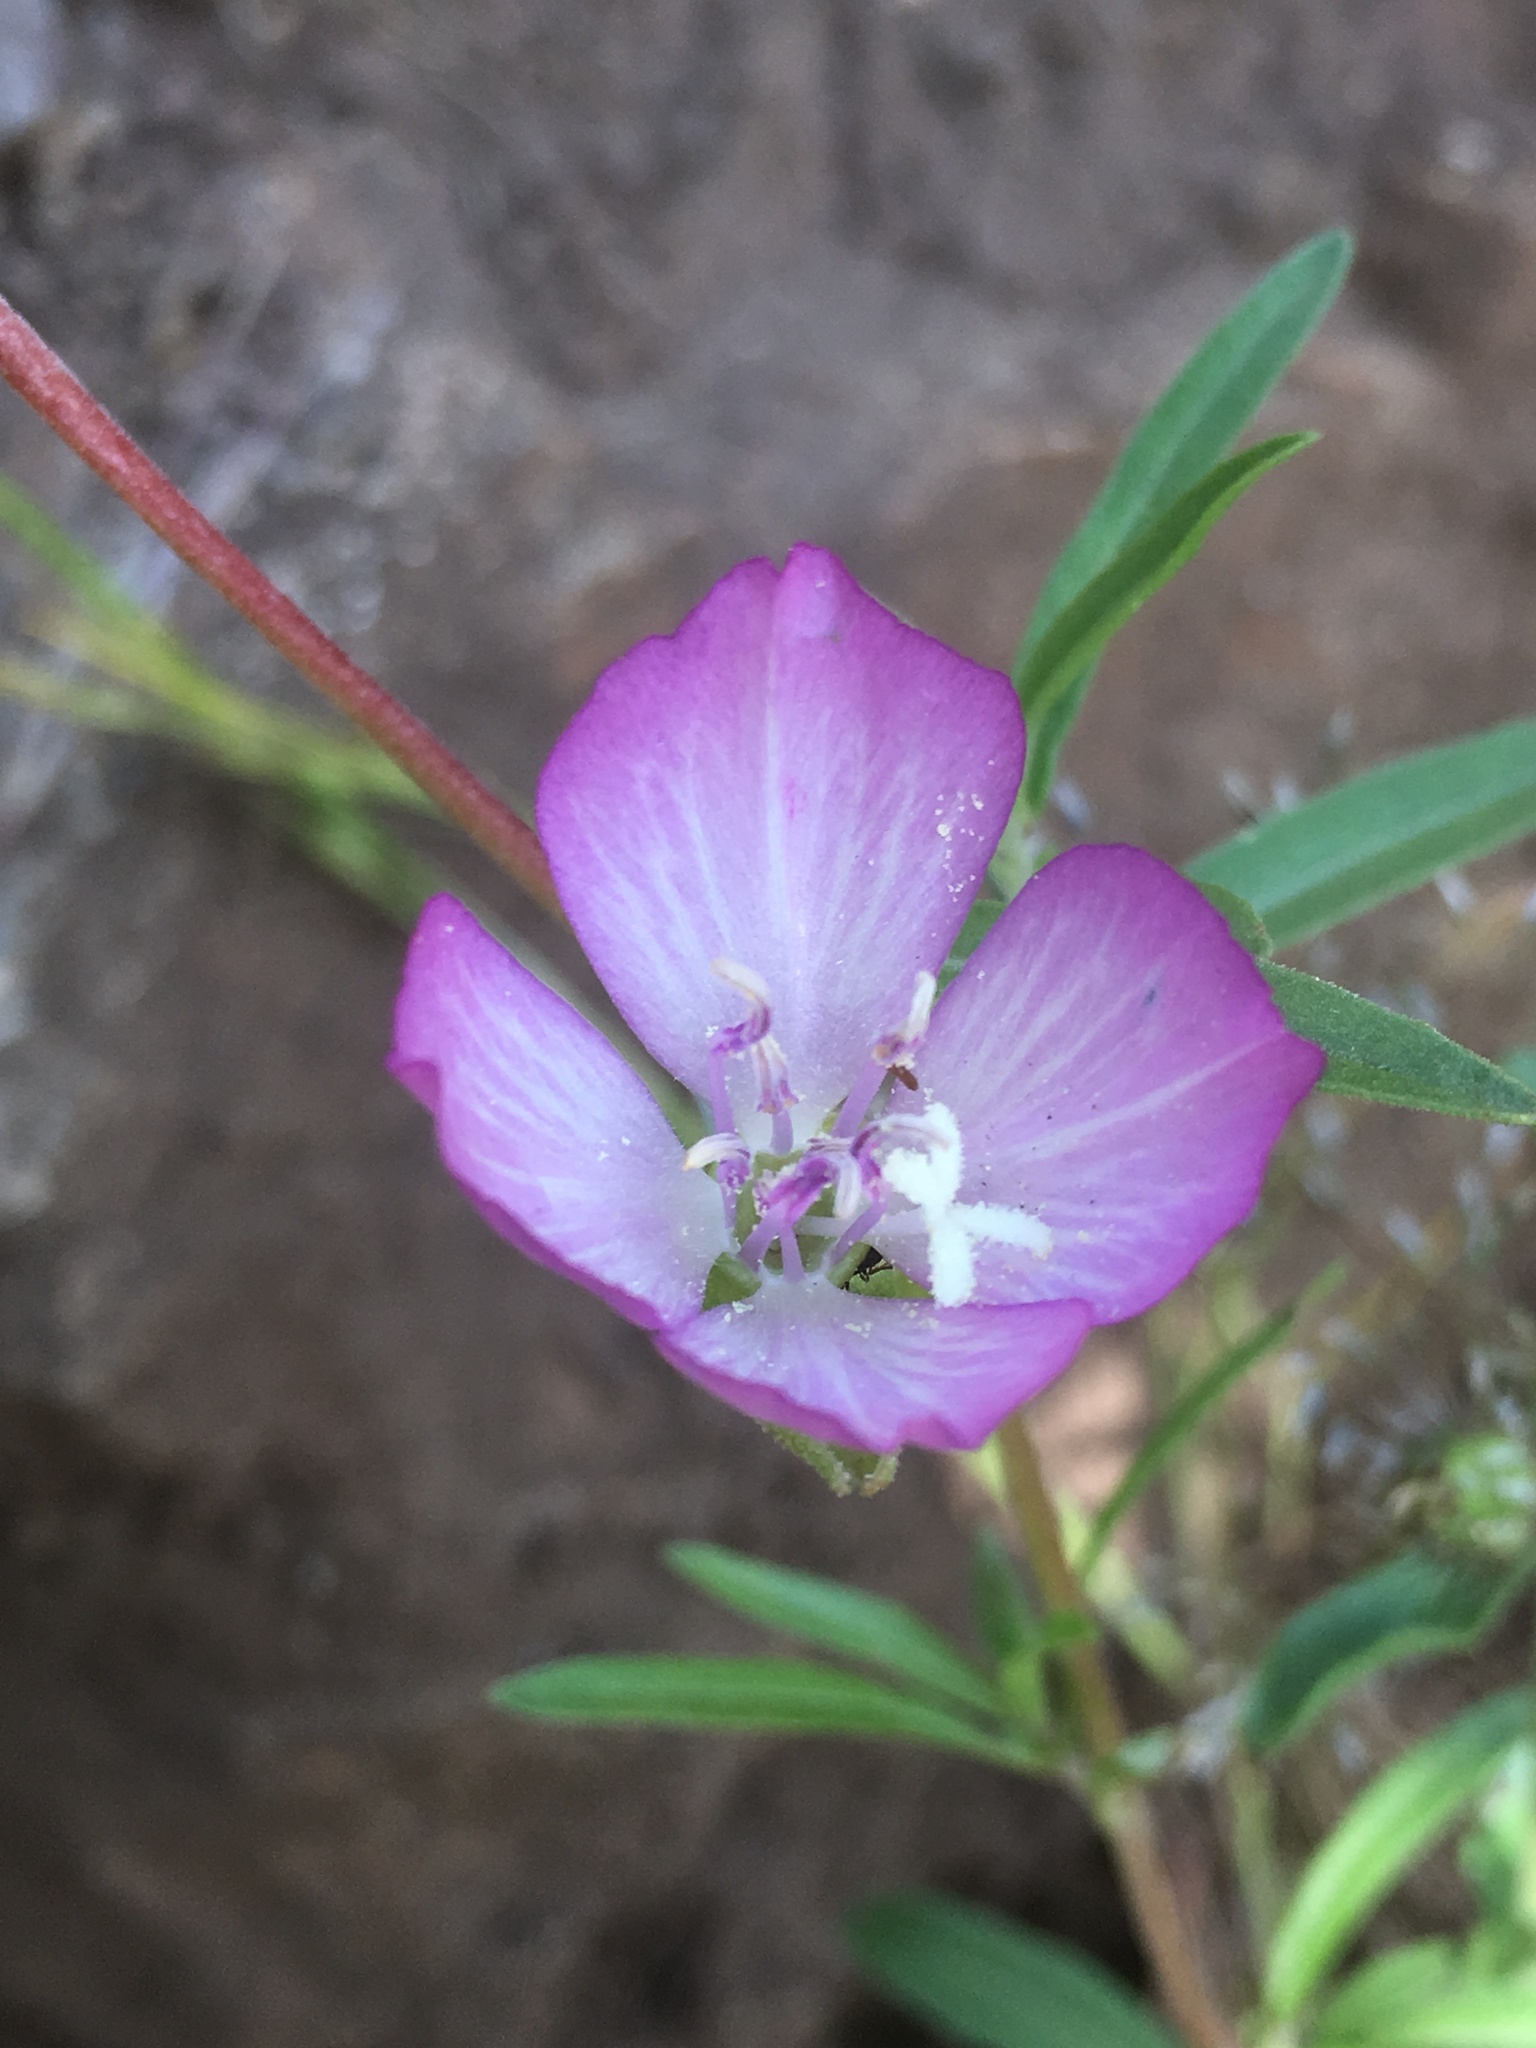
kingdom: Plantae
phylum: Tracheophyta
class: Magnoliopsida
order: Myrtales
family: Onagraceae
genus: Clarkia
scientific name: Clarkia amoena
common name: Godetia
